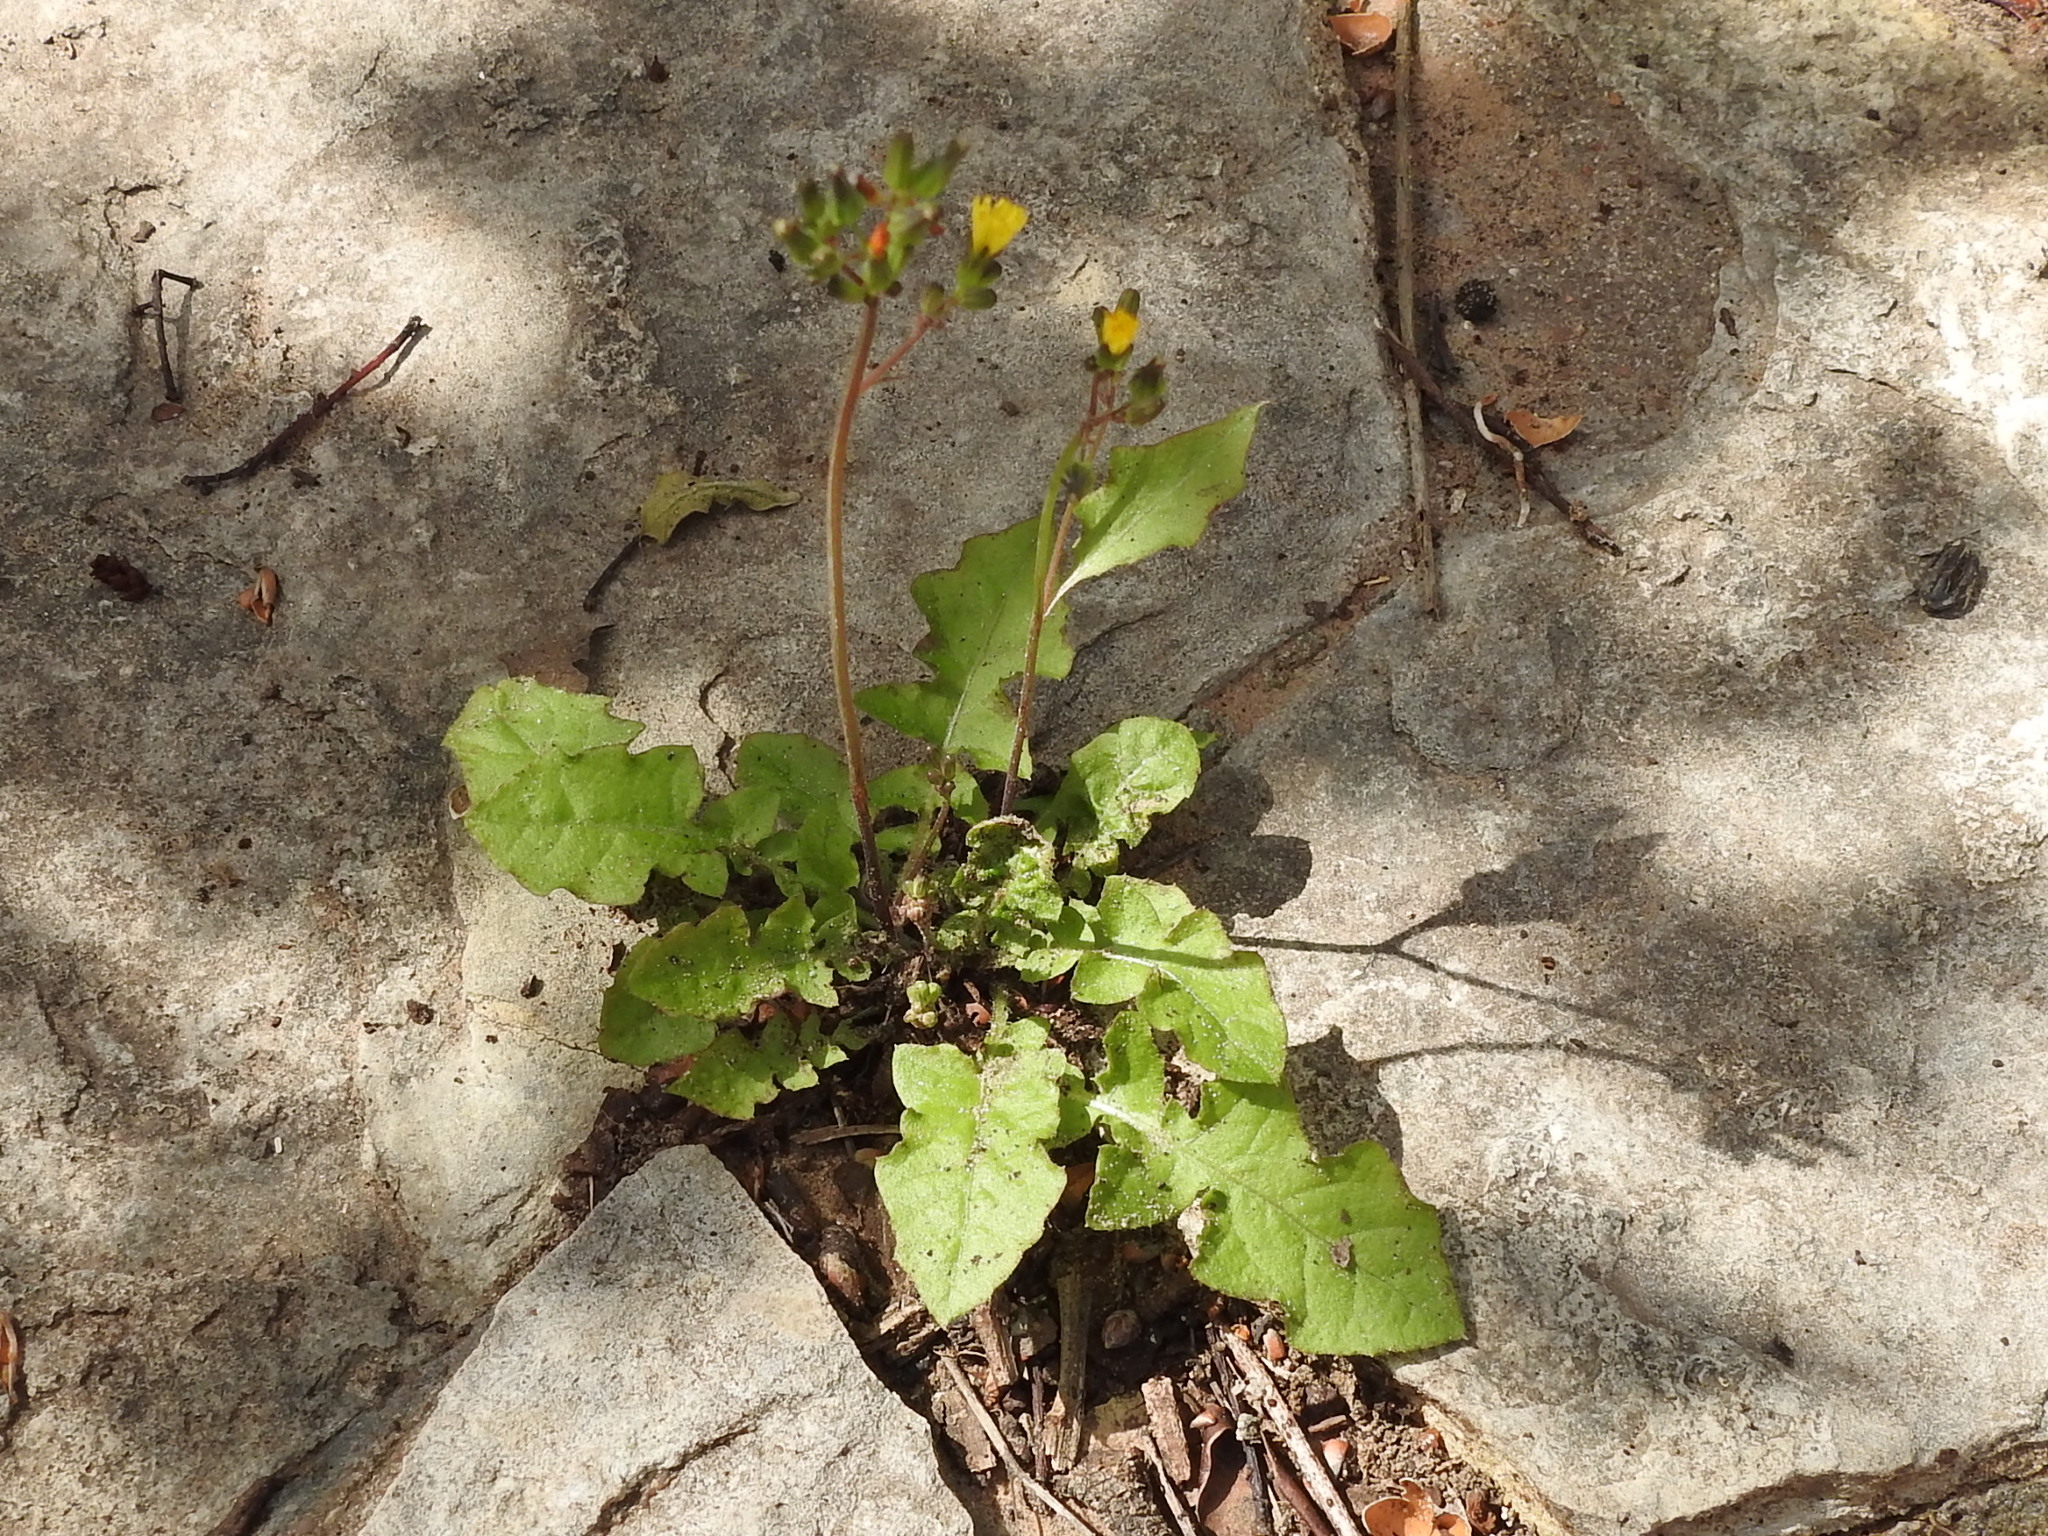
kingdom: Plantae
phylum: Tracheophyta
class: Magnoliopsida
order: Asterales
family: Asteraceae
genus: Youngia
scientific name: Youngia japonica
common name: Oriental false hawksbeard
